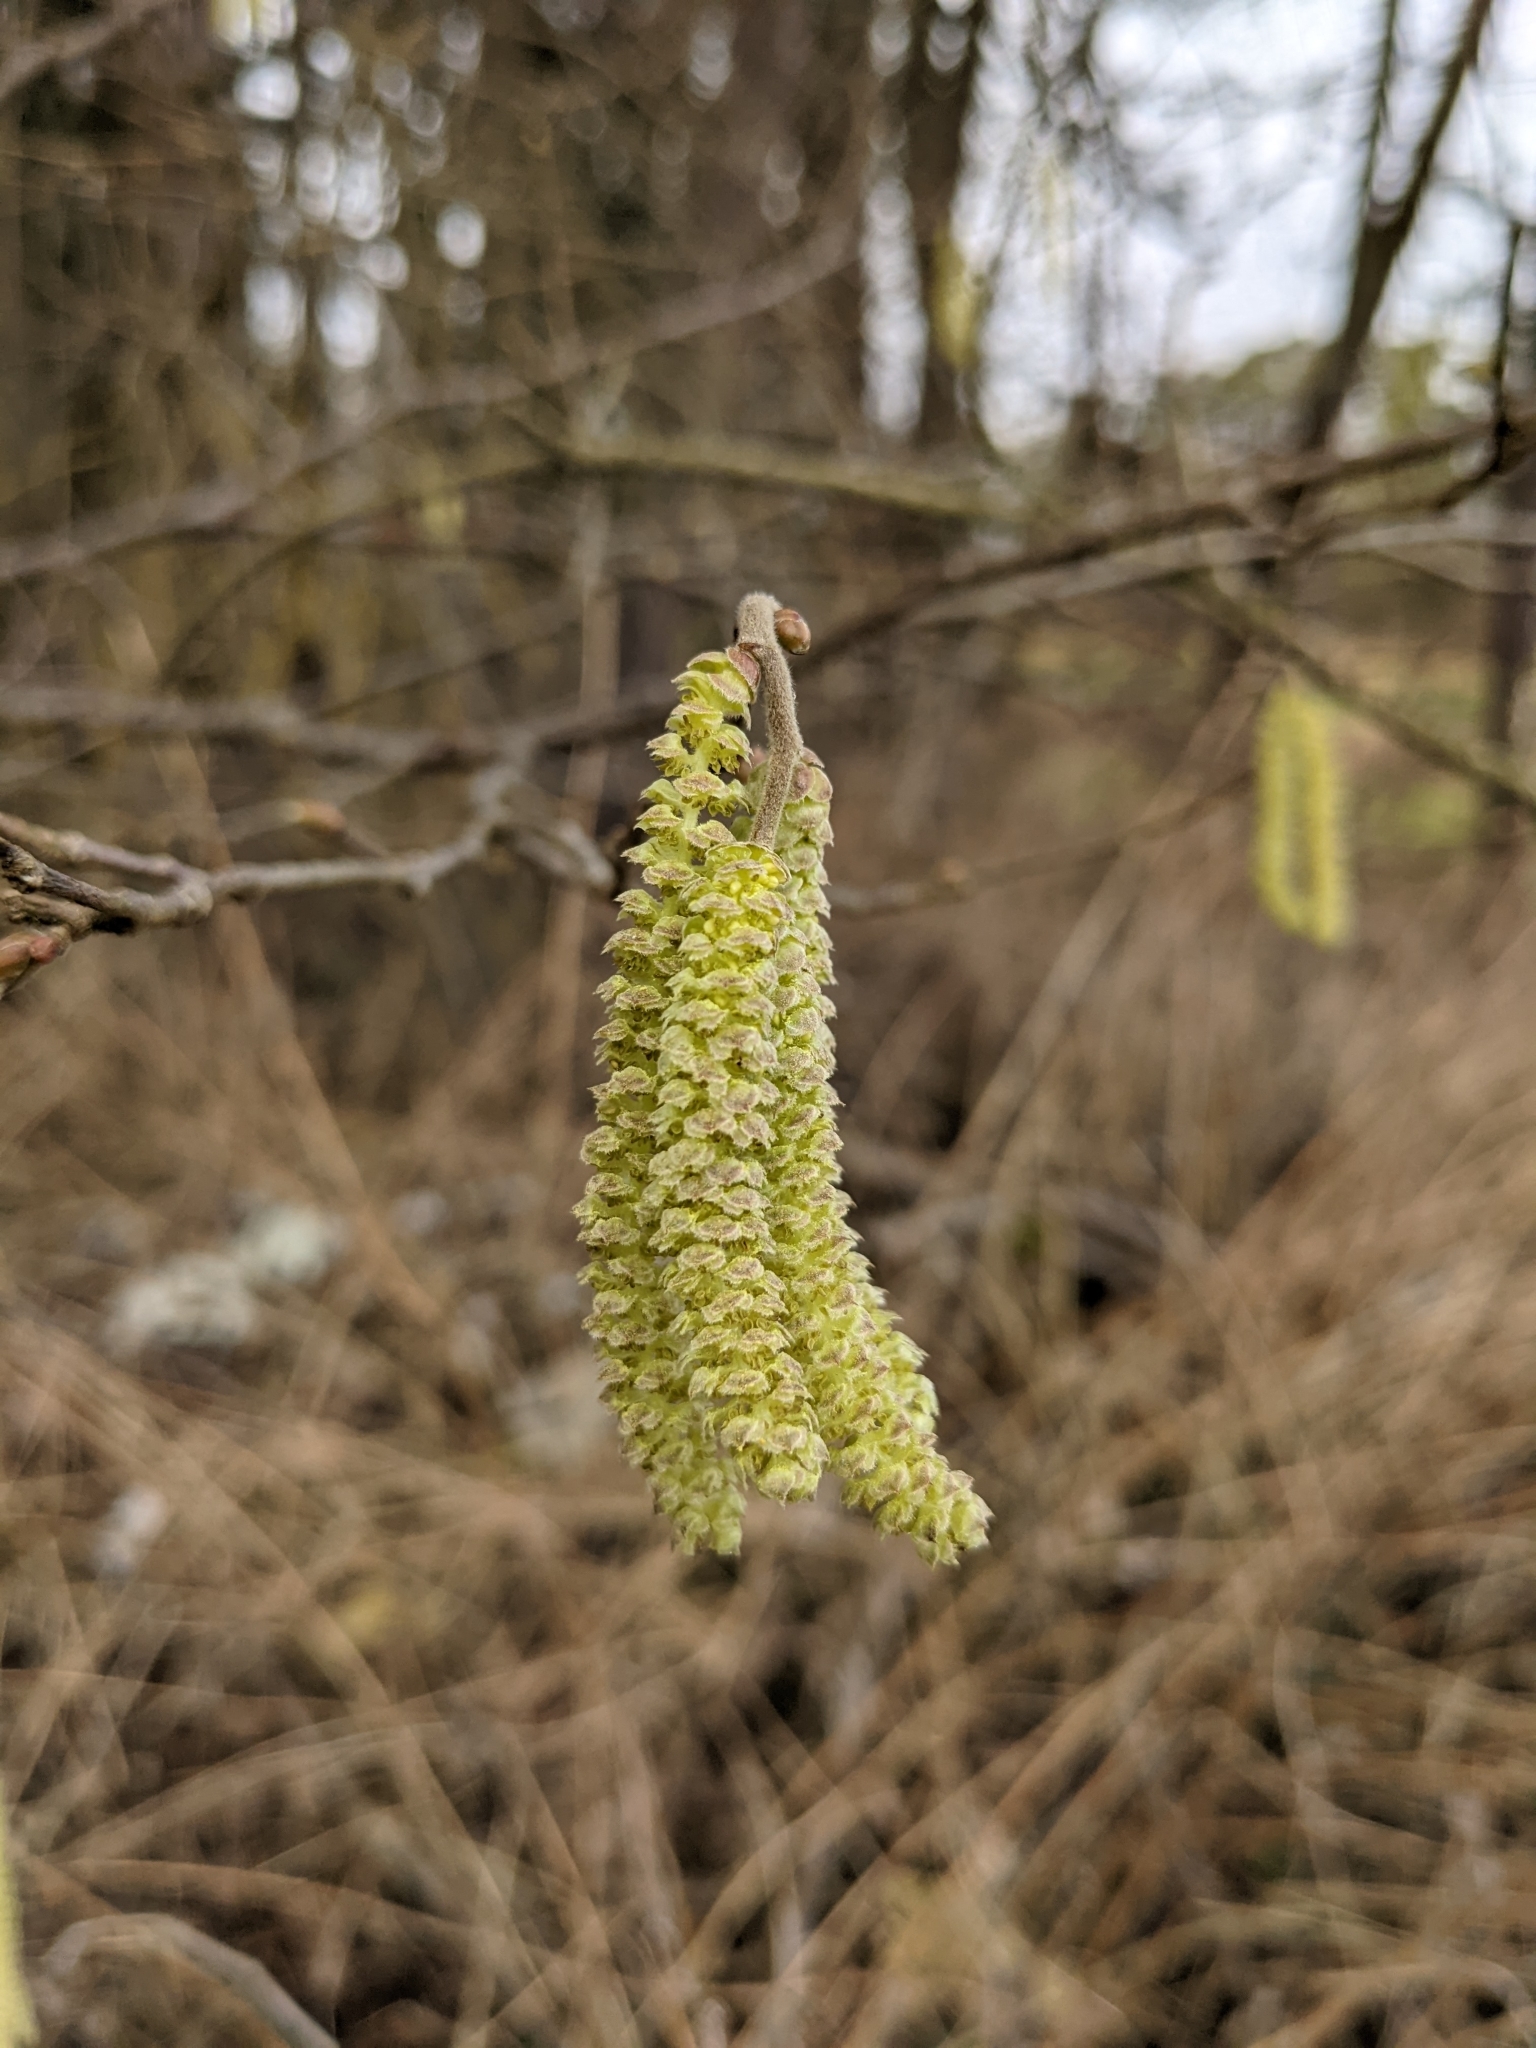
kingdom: Plantae
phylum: Tracheophyta
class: Magnoliopsida
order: Fagales
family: Betulaceae
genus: Corylus
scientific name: Corylus avellana
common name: European hazel
